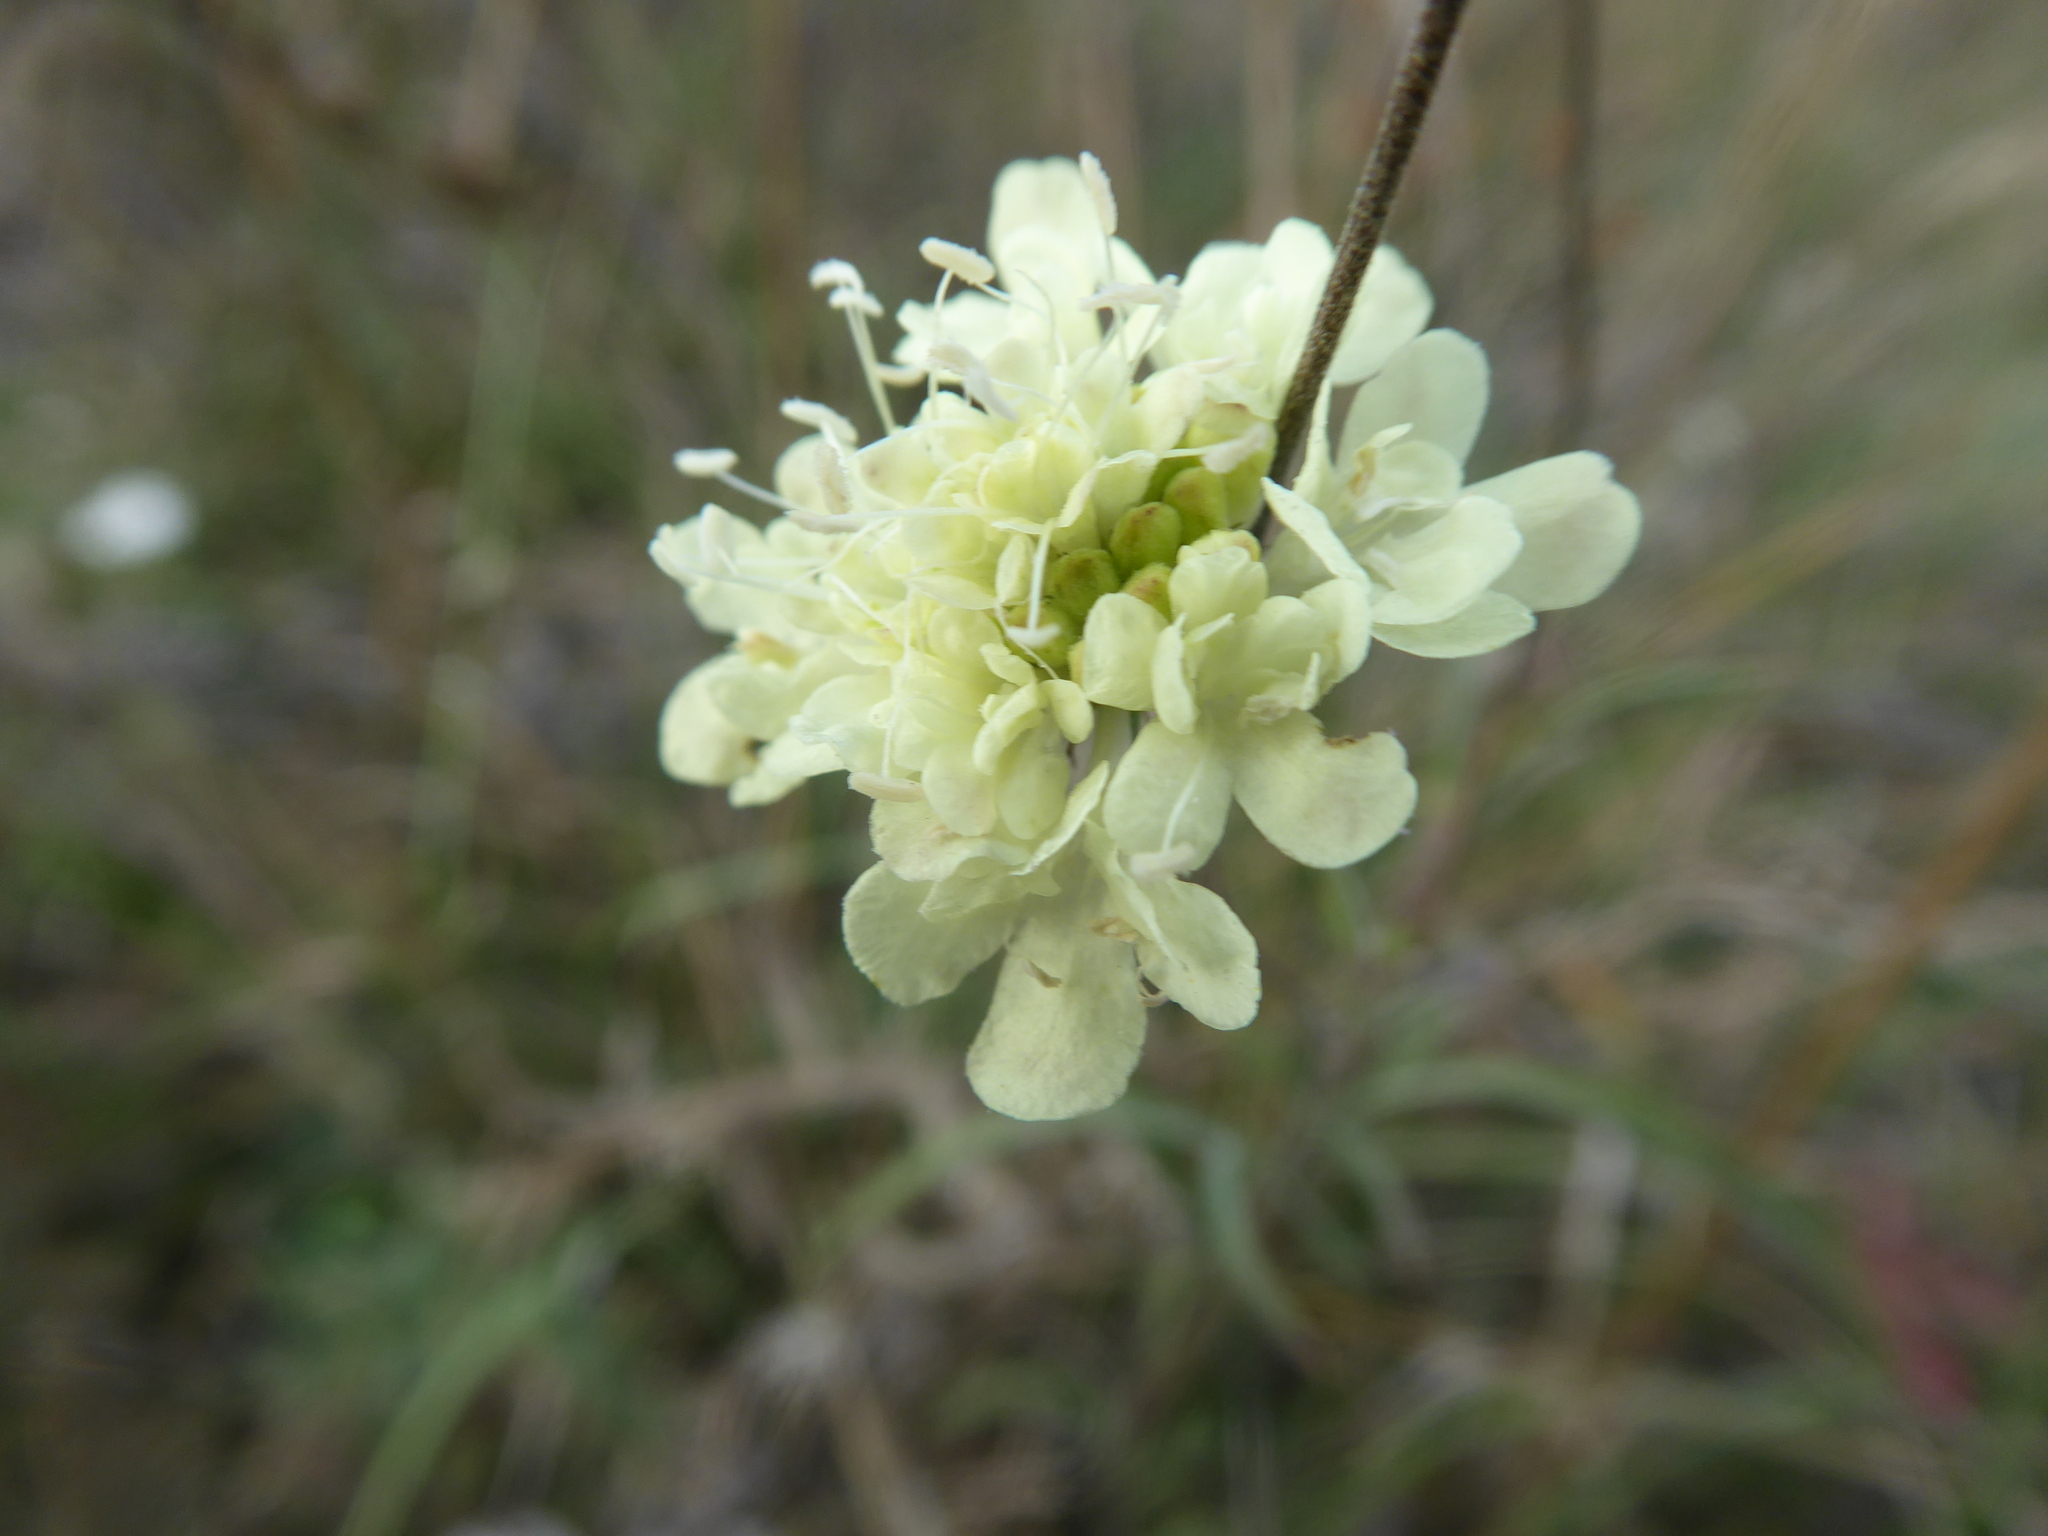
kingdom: Plantae
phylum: Tracheophyta
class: Magnoliopsida
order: Dipsacales
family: Caprifoliaceae
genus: Scabiosa
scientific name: Scabiosa ochroleuca
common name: Cream pincushions
